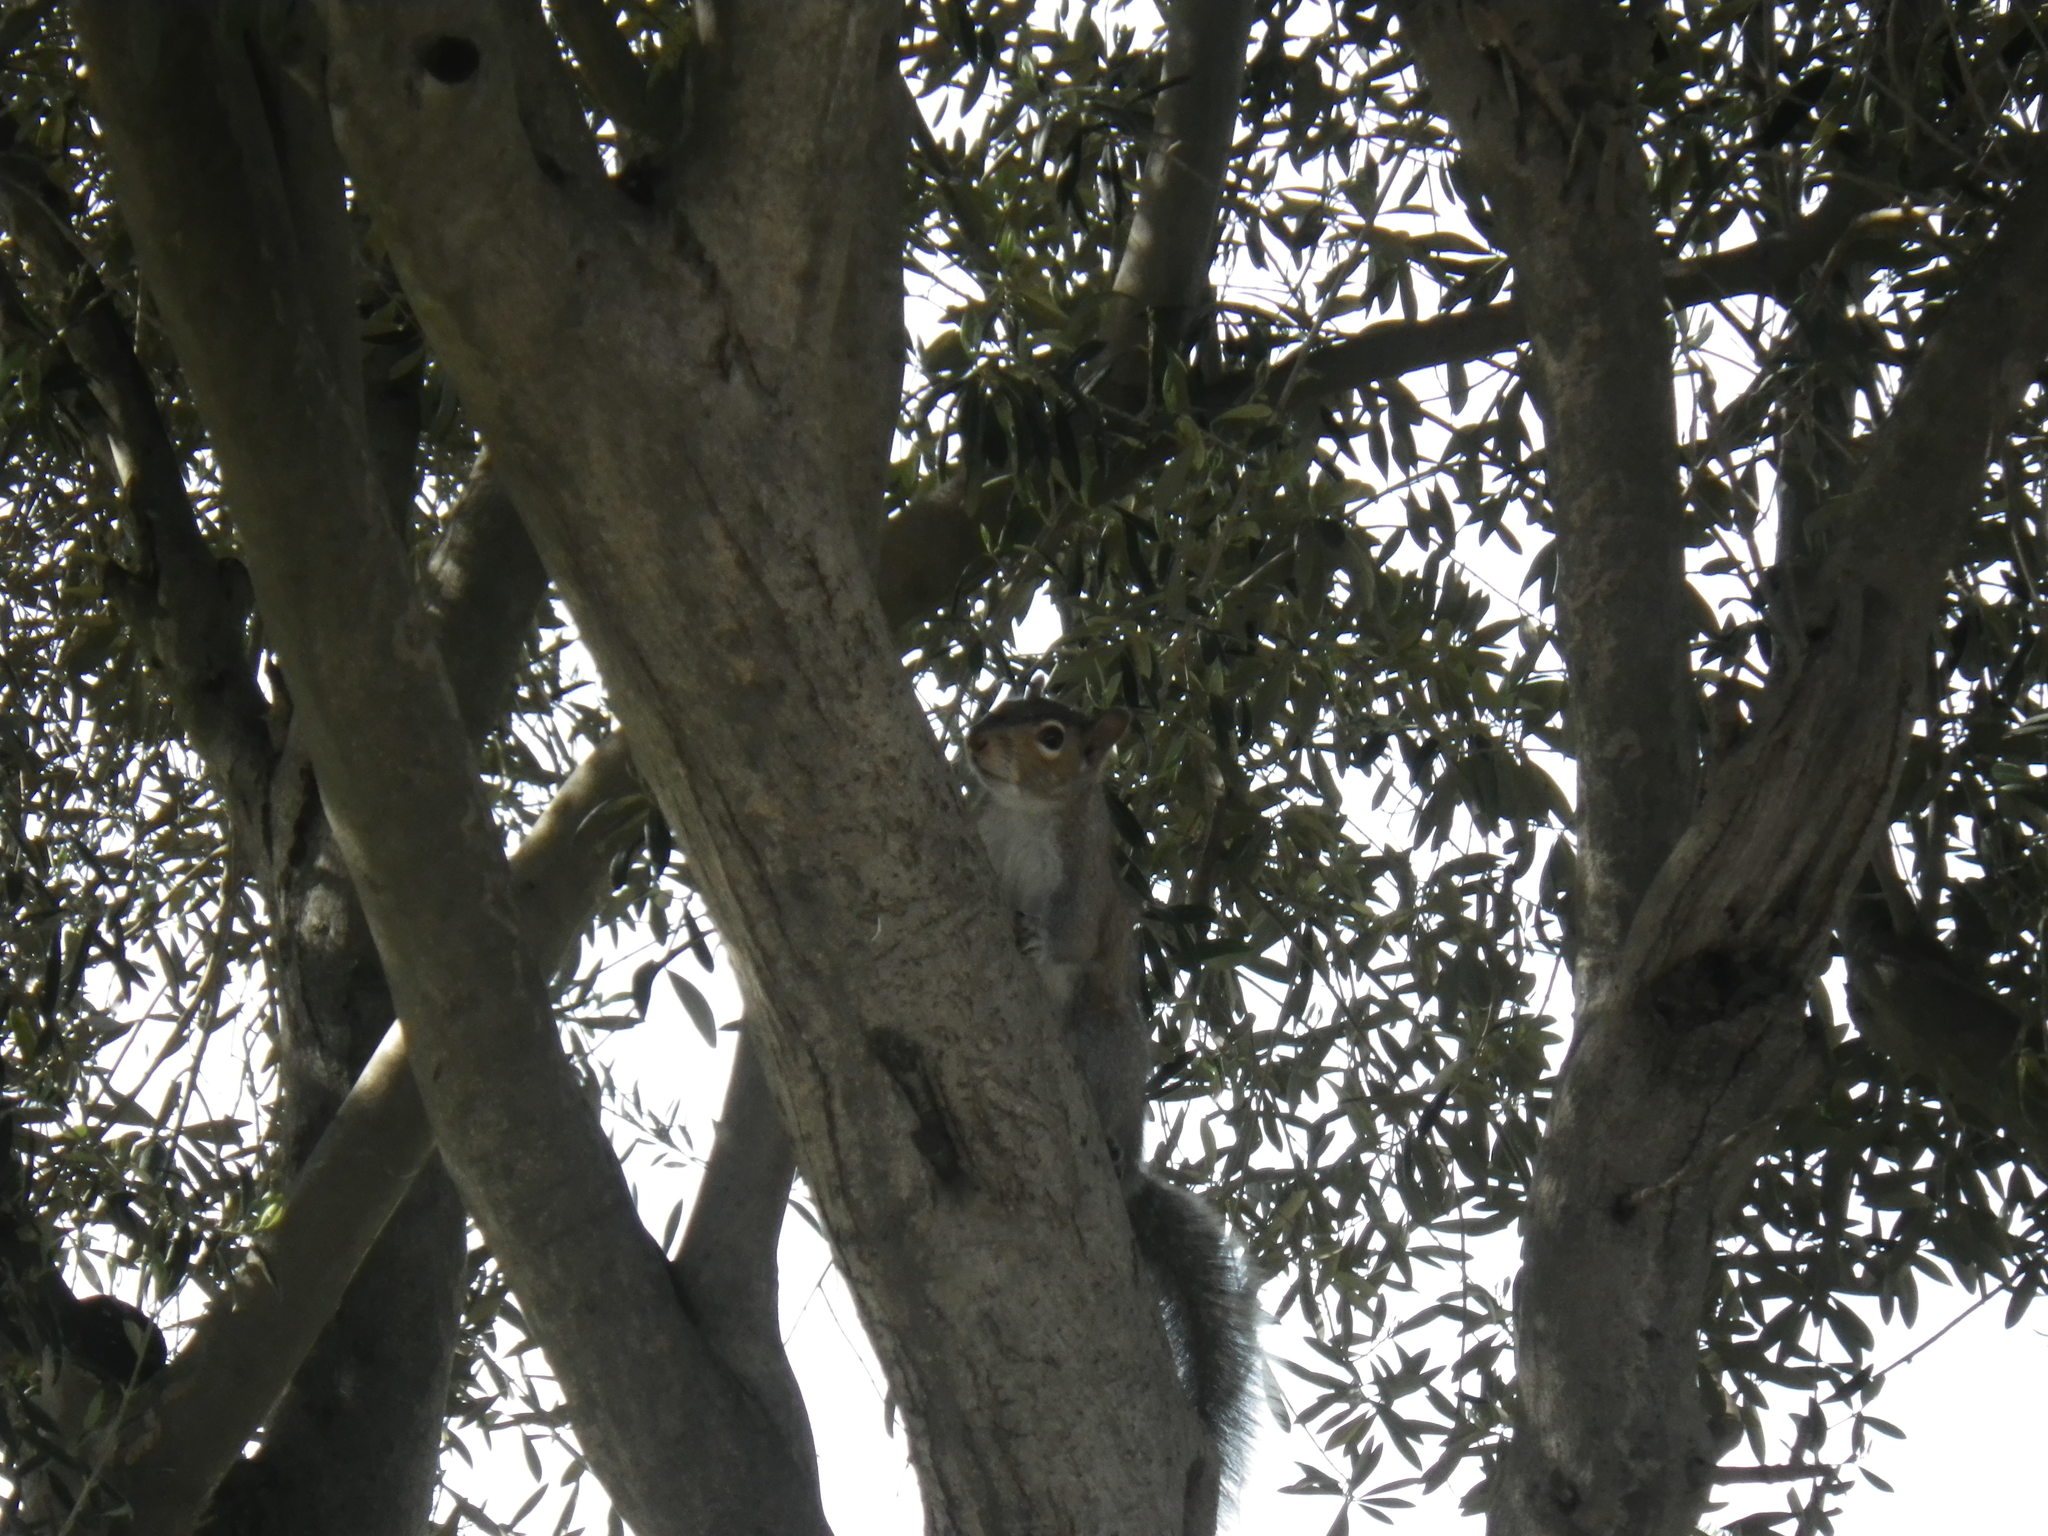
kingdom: Animalia
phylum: Chordata
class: Mammalia
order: Rodentia
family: Sciuridae
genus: Sciurus
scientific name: Sciurus carolinensis
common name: Eastern gray squirrel
